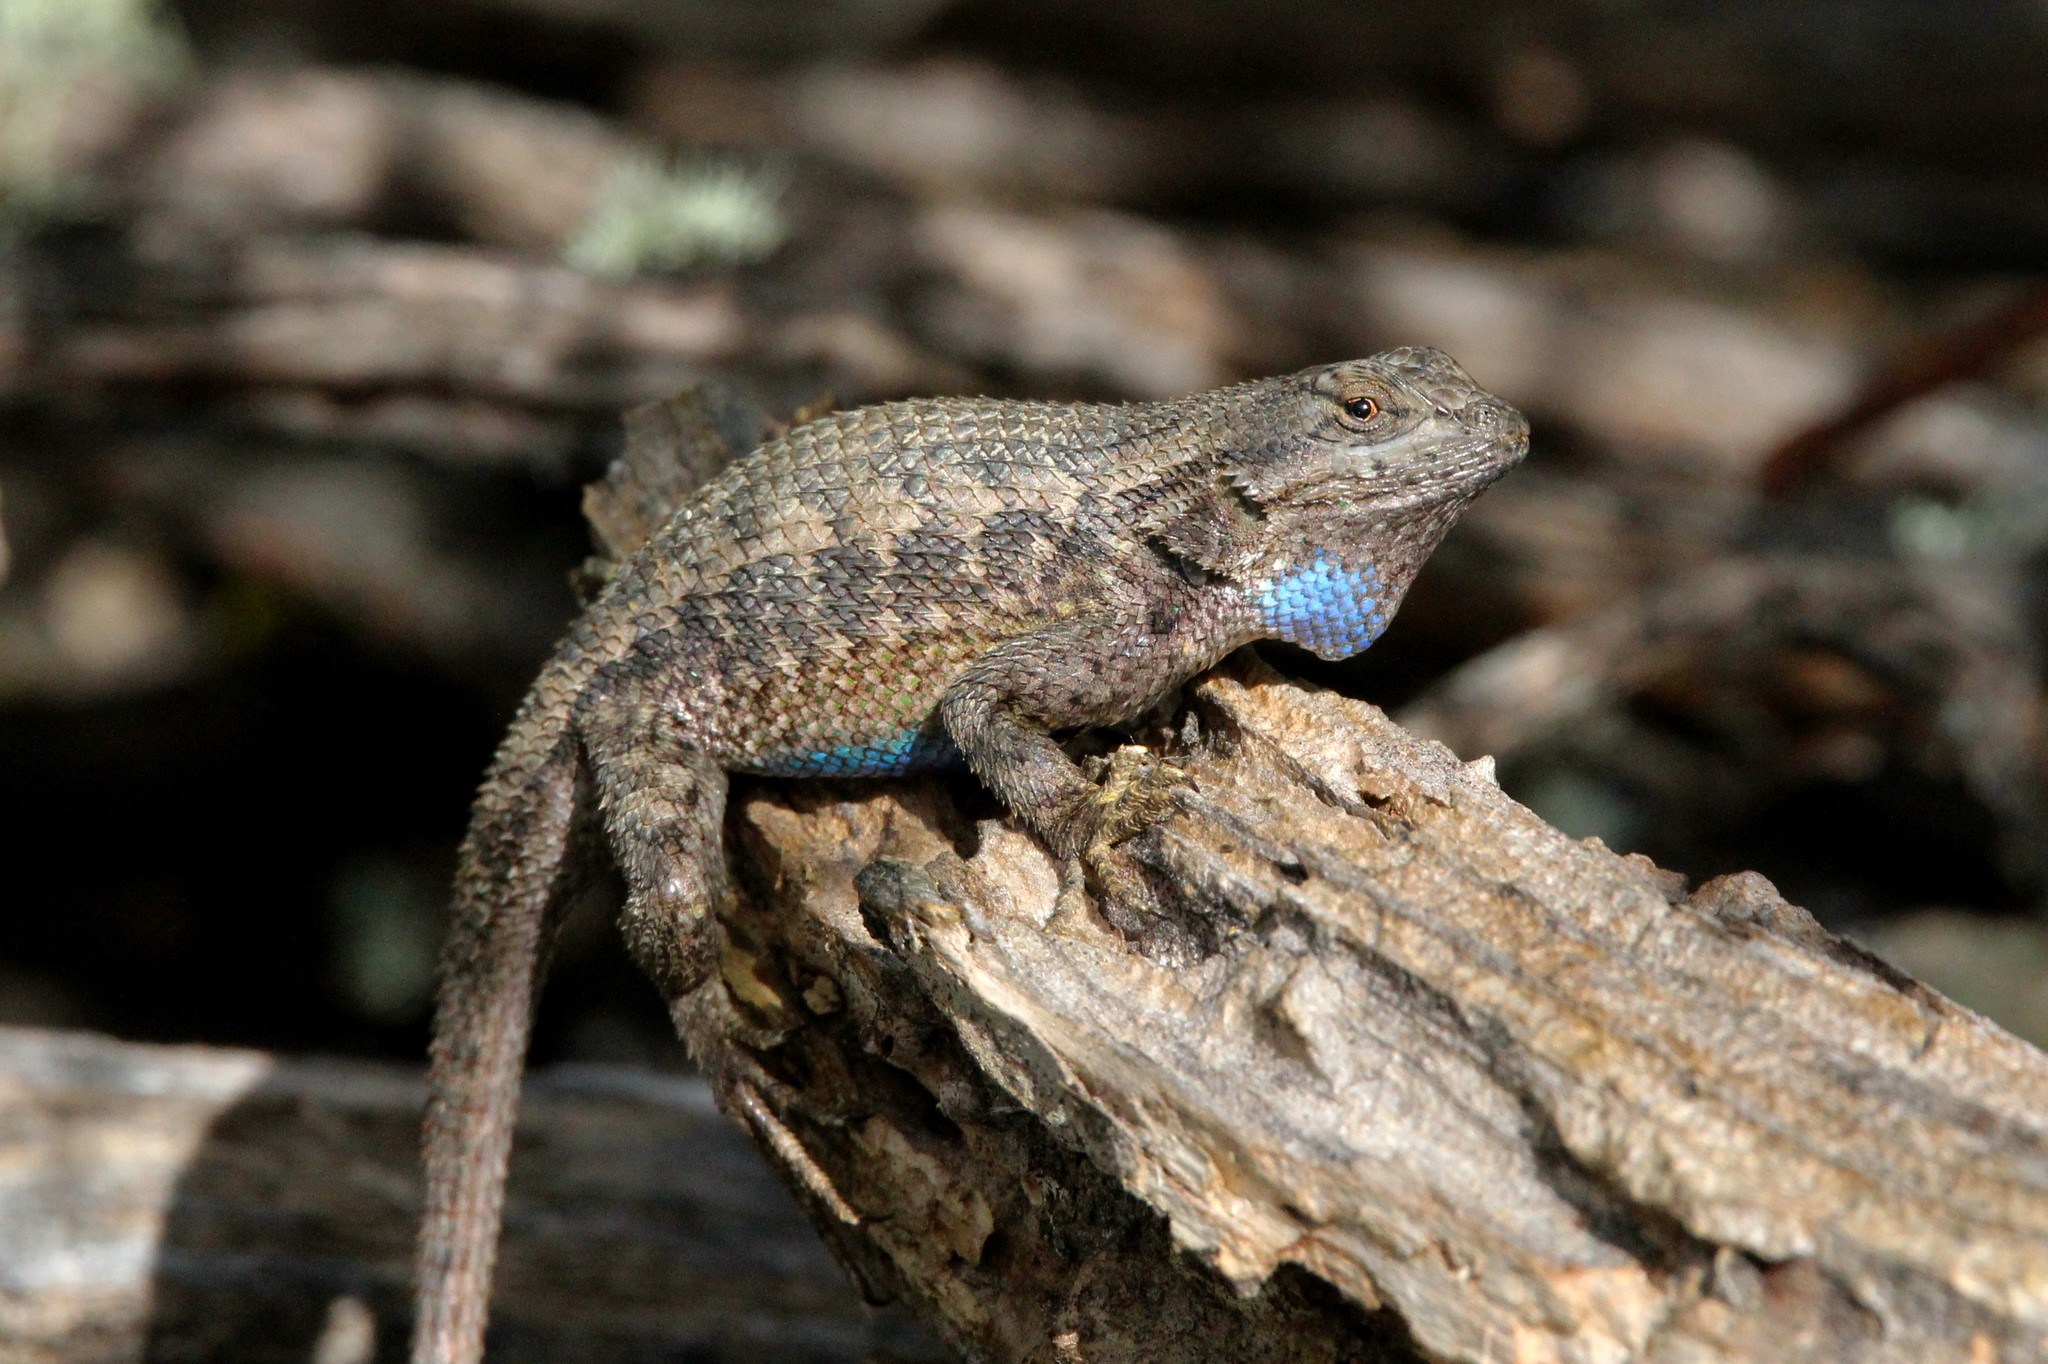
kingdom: Animalia
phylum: Chordata
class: Squamata
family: Phrynosomatidae
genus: Sceloporus
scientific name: Sceloporus occidentalis
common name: Western fence lizard
